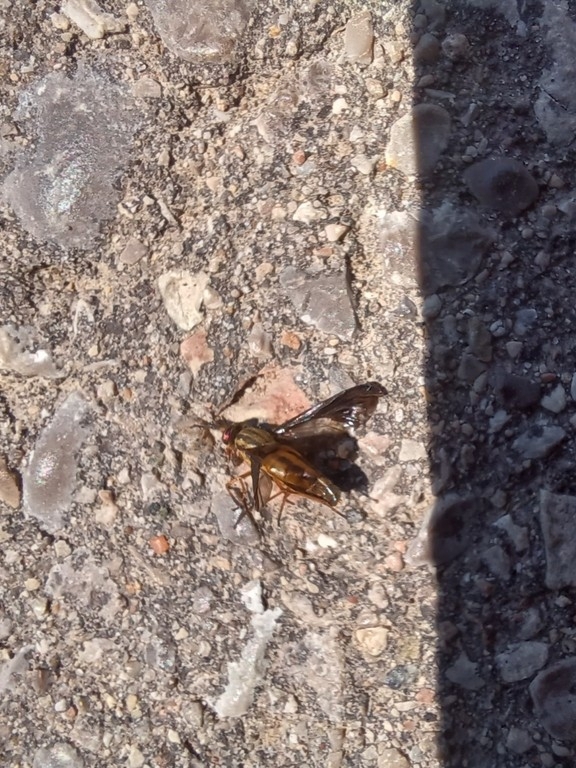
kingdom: Animalia
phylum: Arthropoda
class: Insecta
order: Diptera
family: Tabanidae
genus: Chrysops
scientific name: Chrysops moechus
